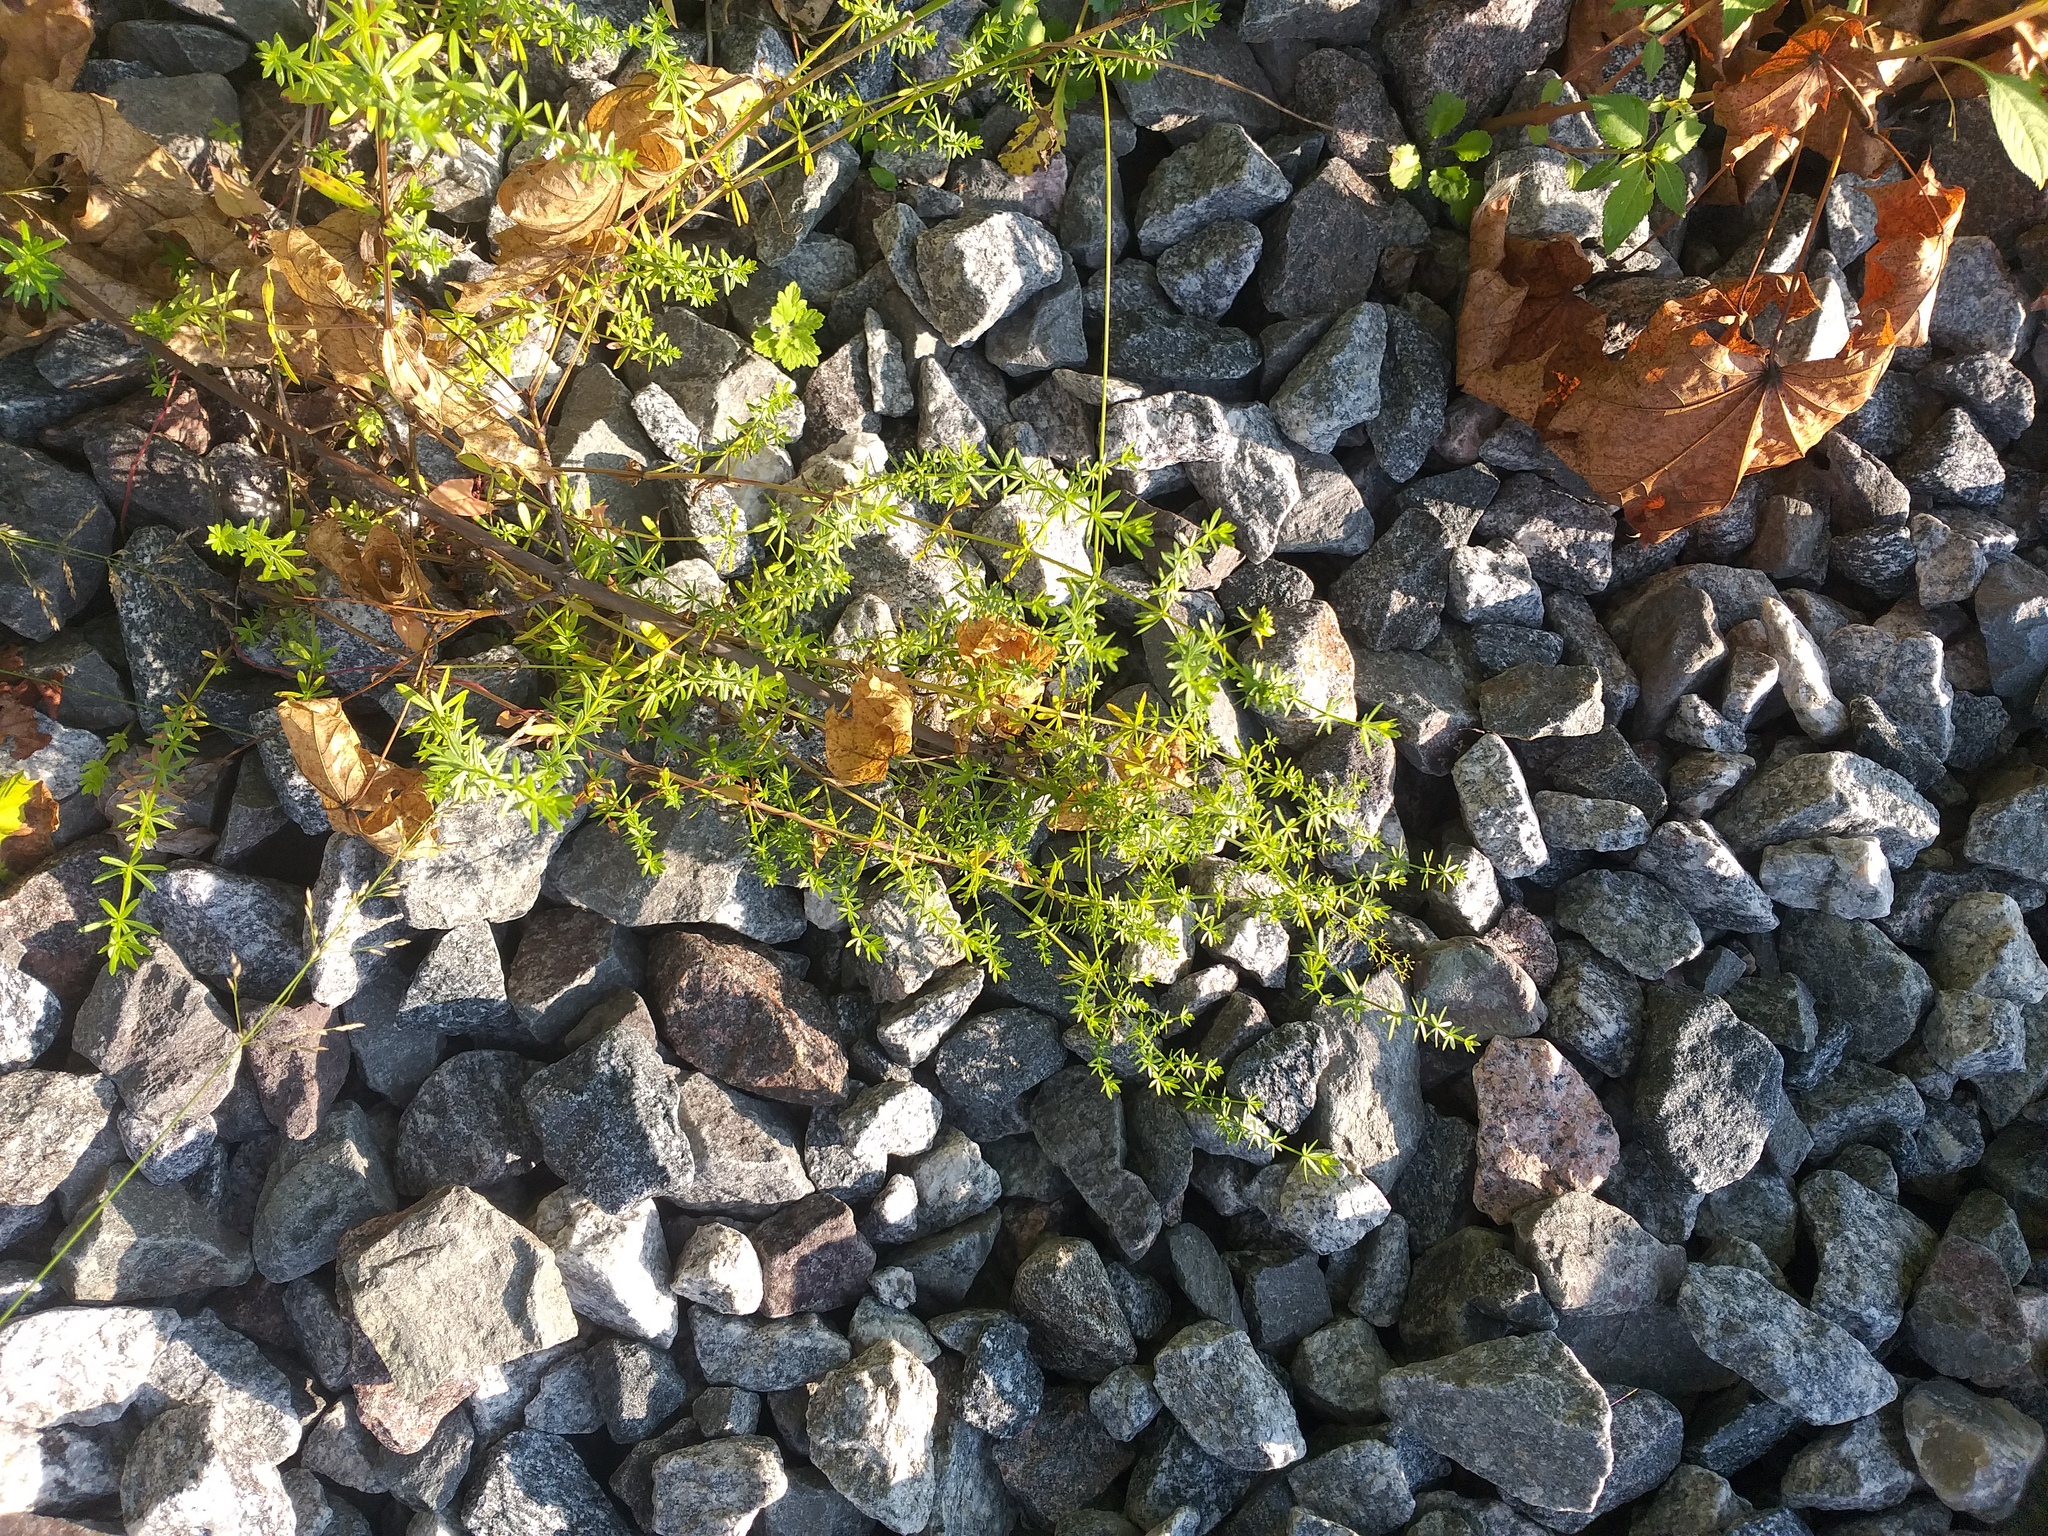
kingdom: Plantae
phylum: Tracheophyta
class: Magnoliopsida
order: Gentianales
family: Rubiaceae
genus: Galium
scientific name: Galium mollugo
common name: Hedge bedstraw
